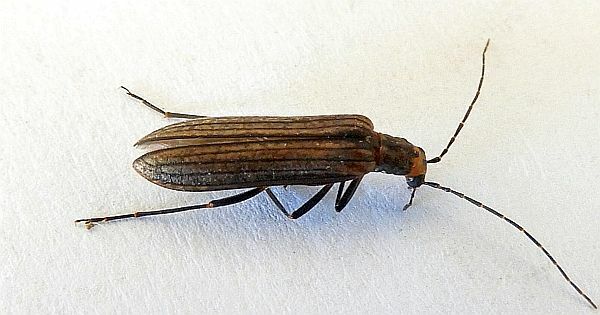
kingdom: Animalia
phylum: Arthropoda
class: Insecta
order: Coleoptera
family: Oedemeridae
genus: Vasaces
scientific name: Vasaces linearis
